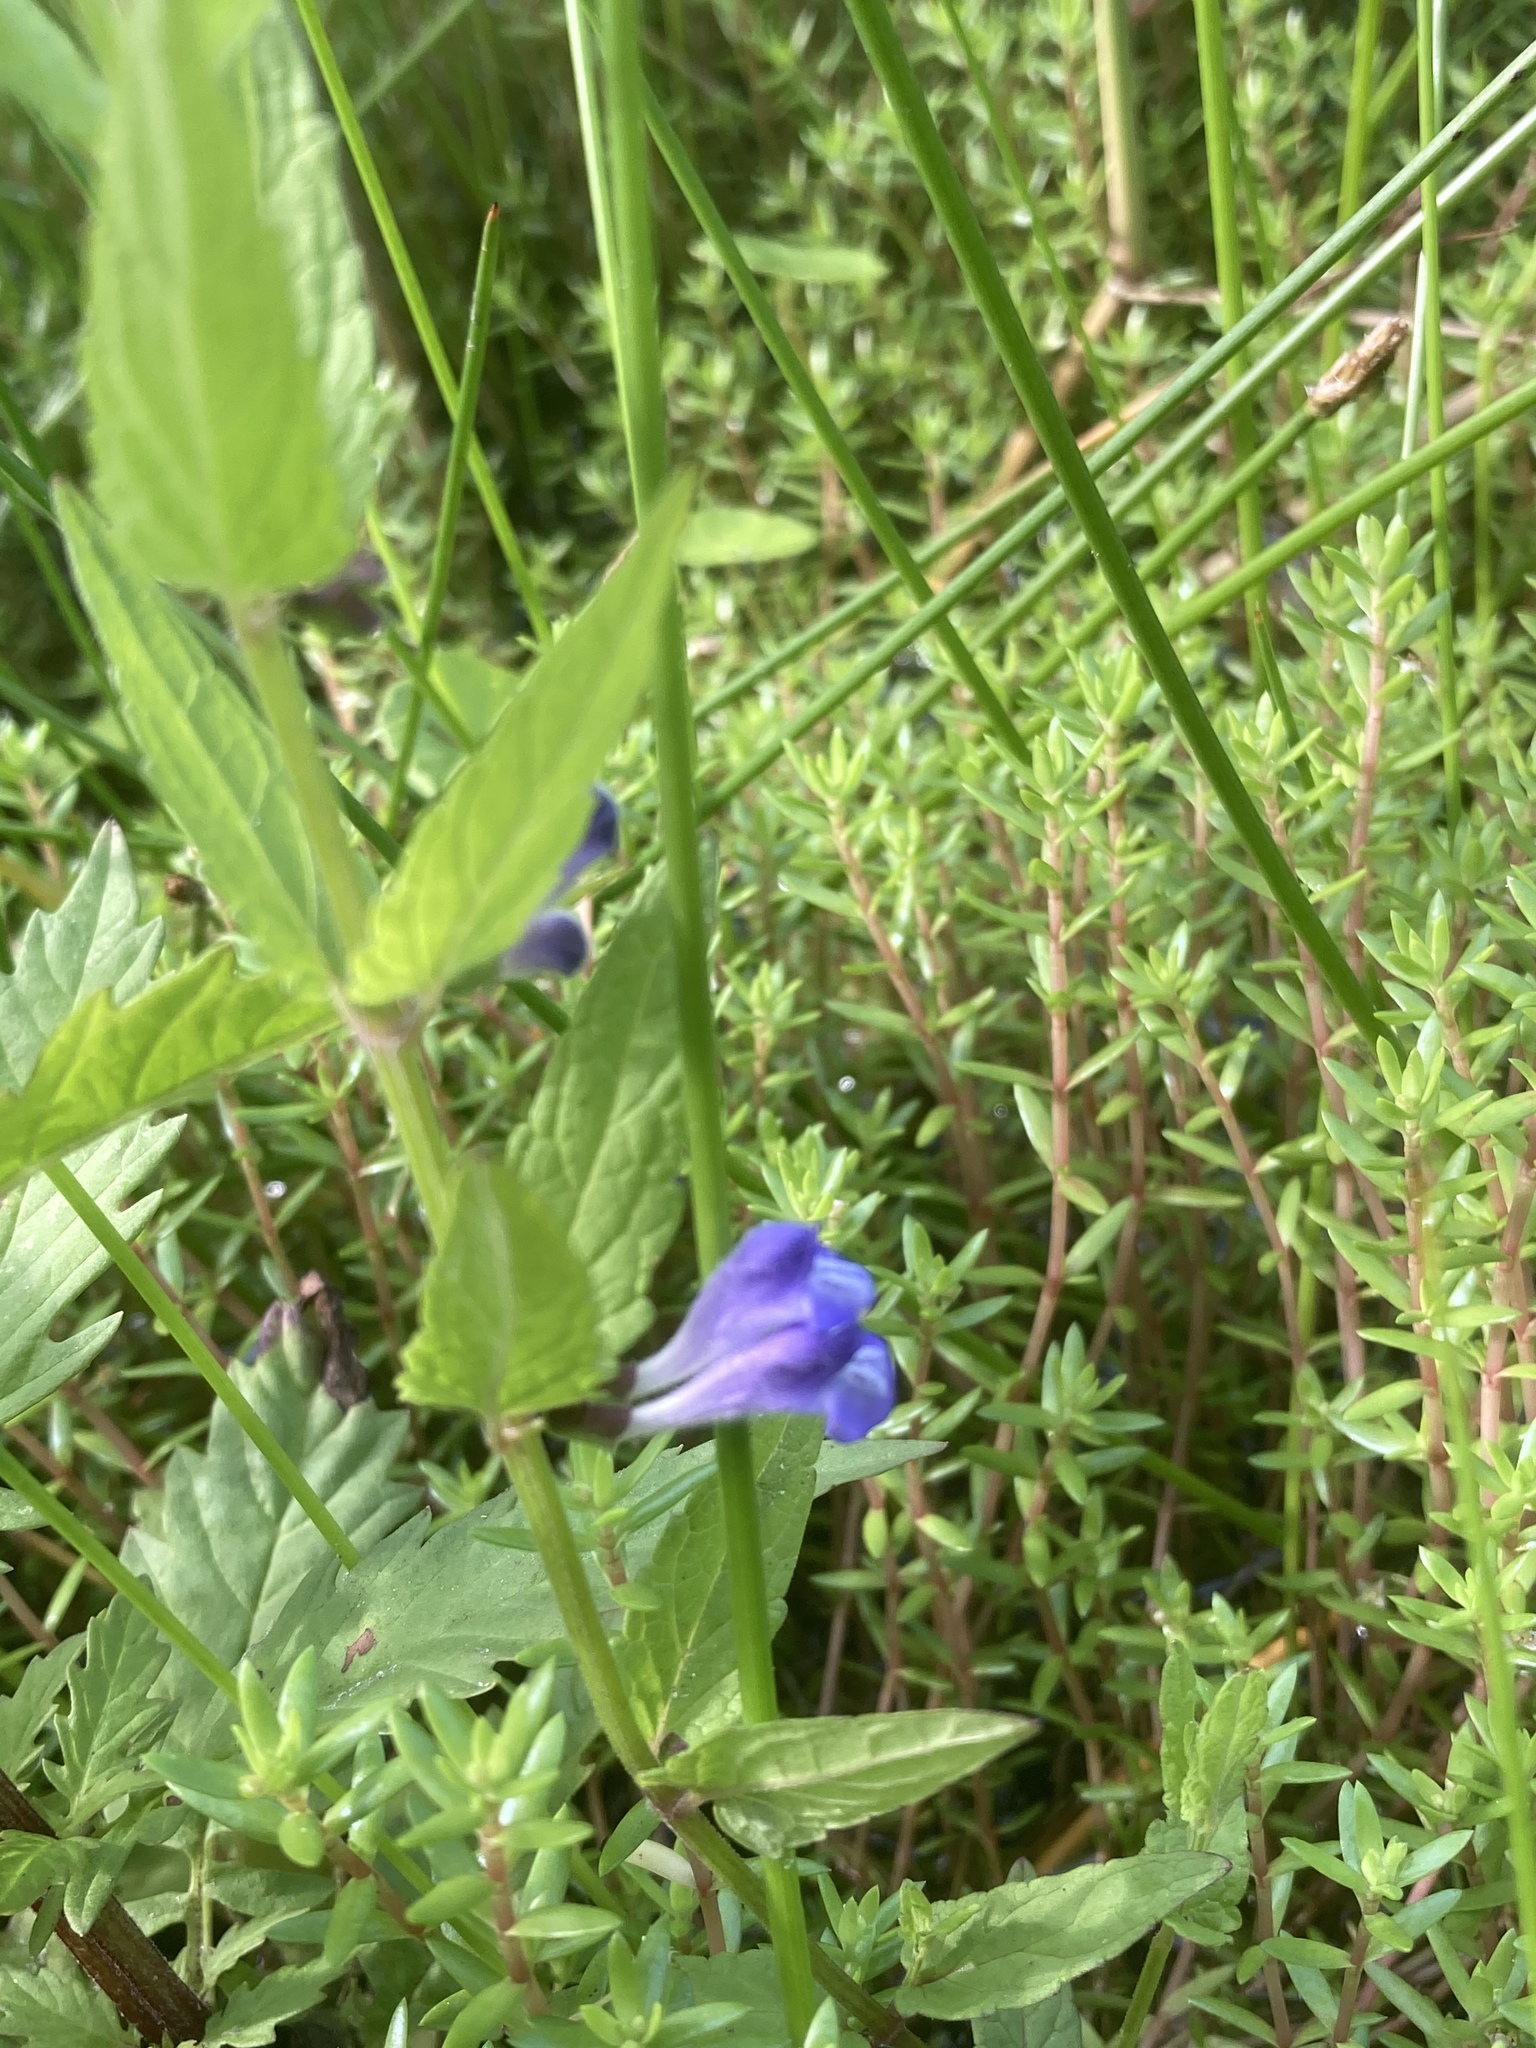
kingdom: Plantae
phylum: Tracheophyta
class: Magnoliopsida
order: Lamiales
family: Lamiaceae
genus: Scutellaria
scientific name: Scutellaria galericulata
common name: Skullcap
